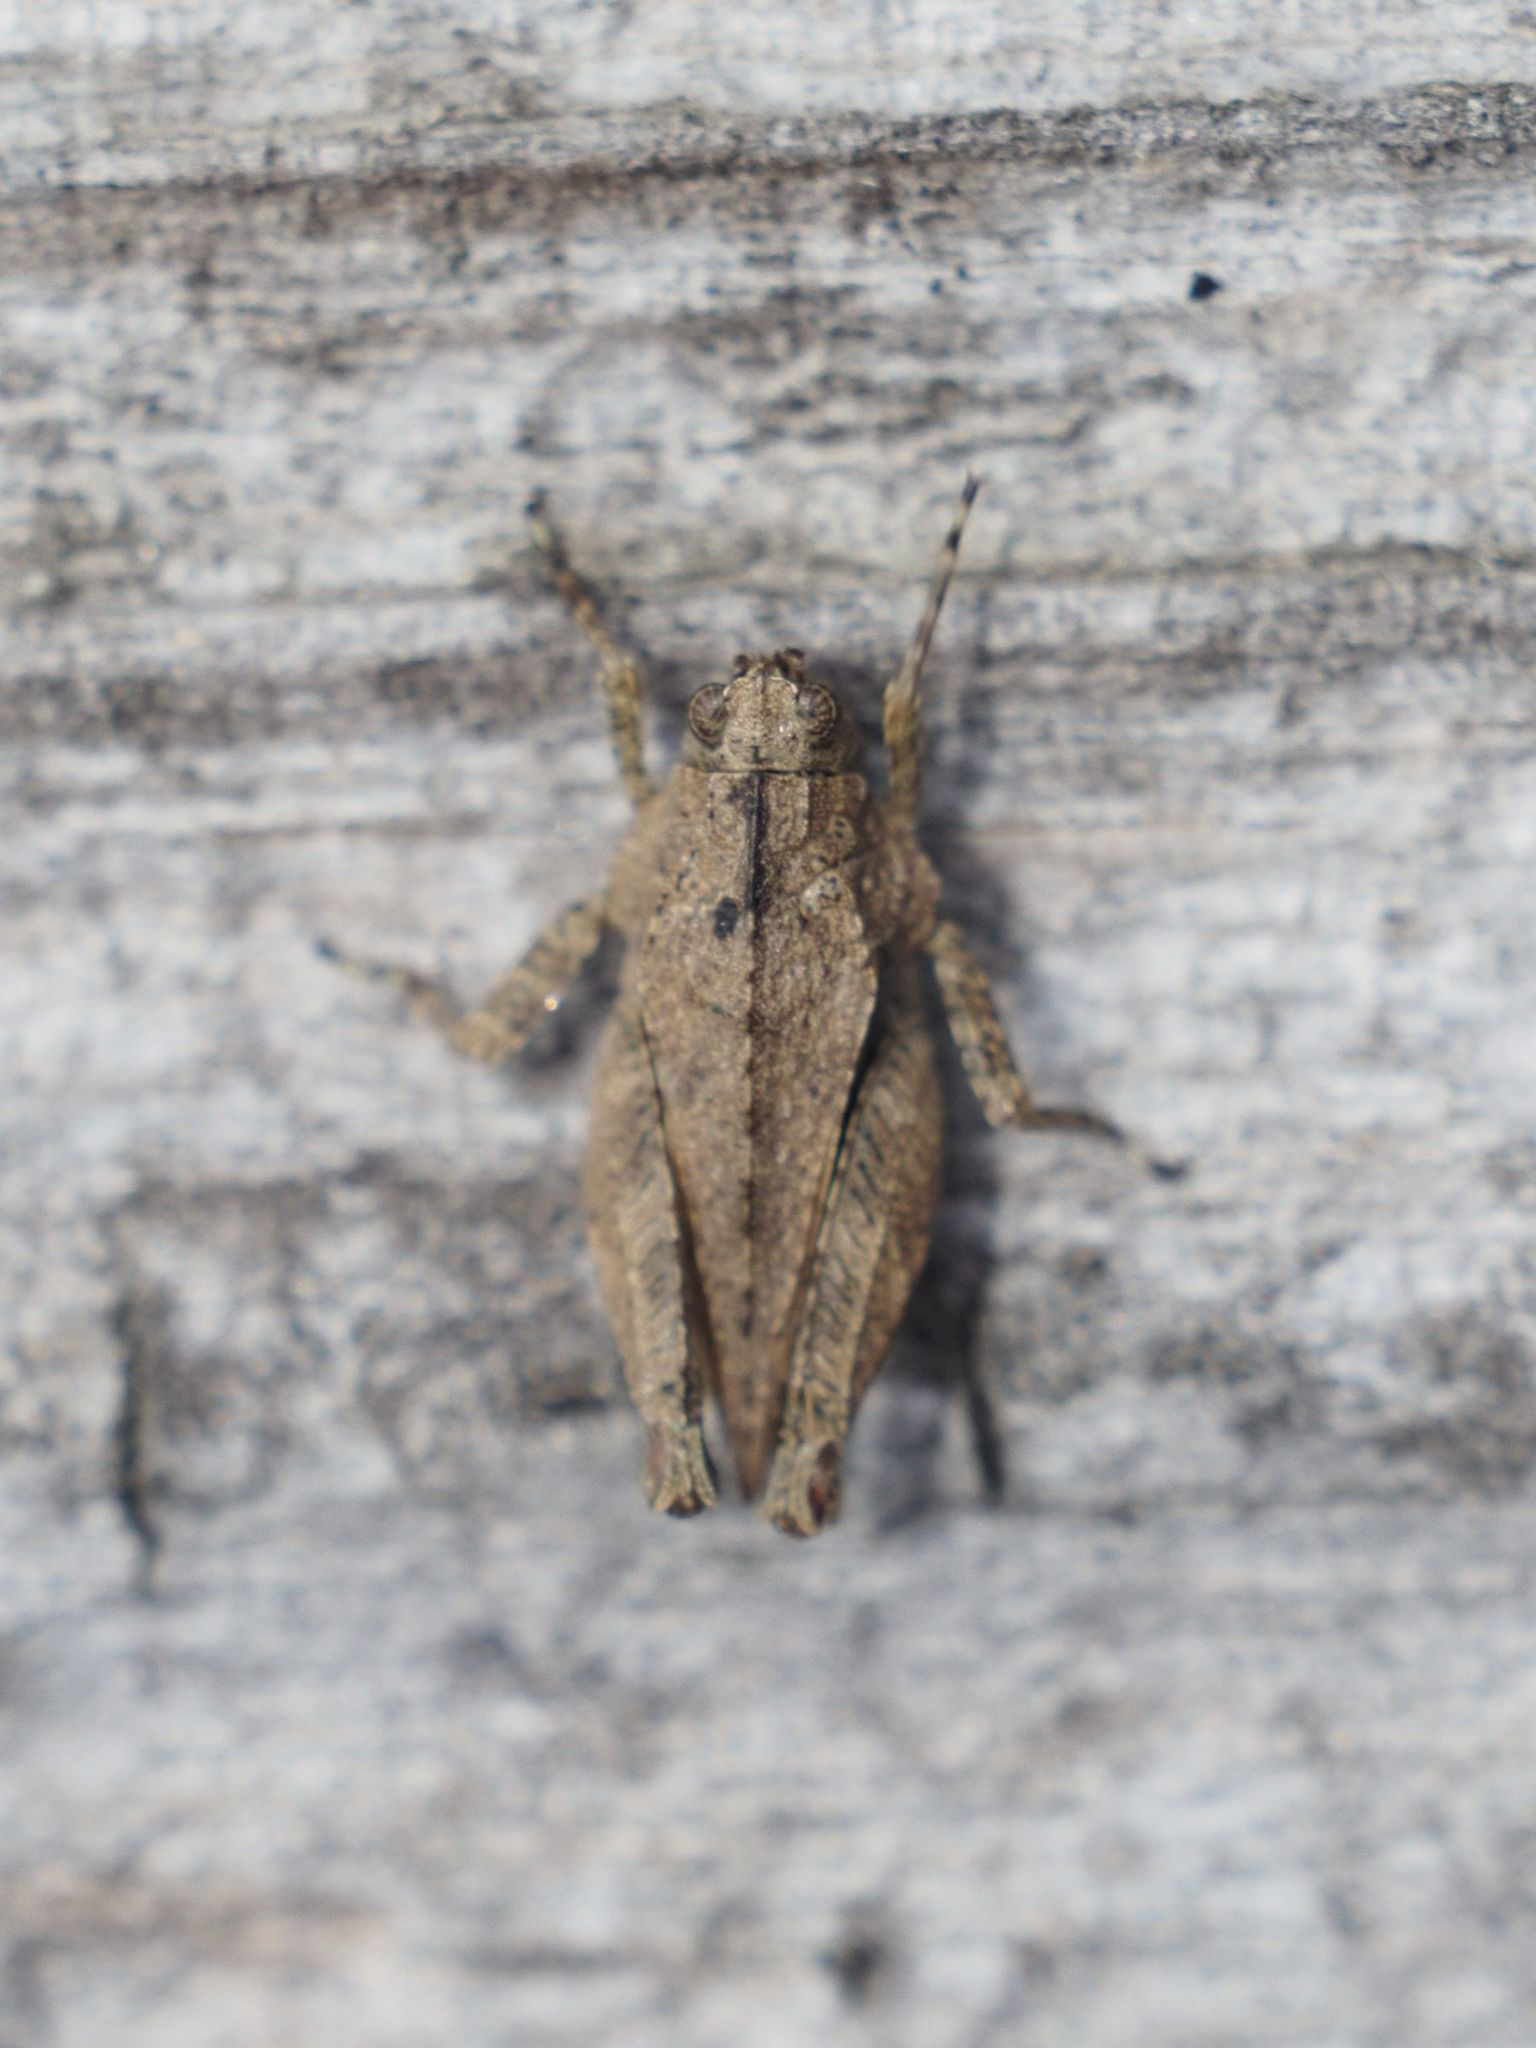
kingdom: Animalia
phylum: Arthropoda
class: Insecta
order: Orthoptera
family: Tetrigidae
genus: Tetrix
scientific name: Tetrix tenuicornis
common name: Long-horned groundhopper
